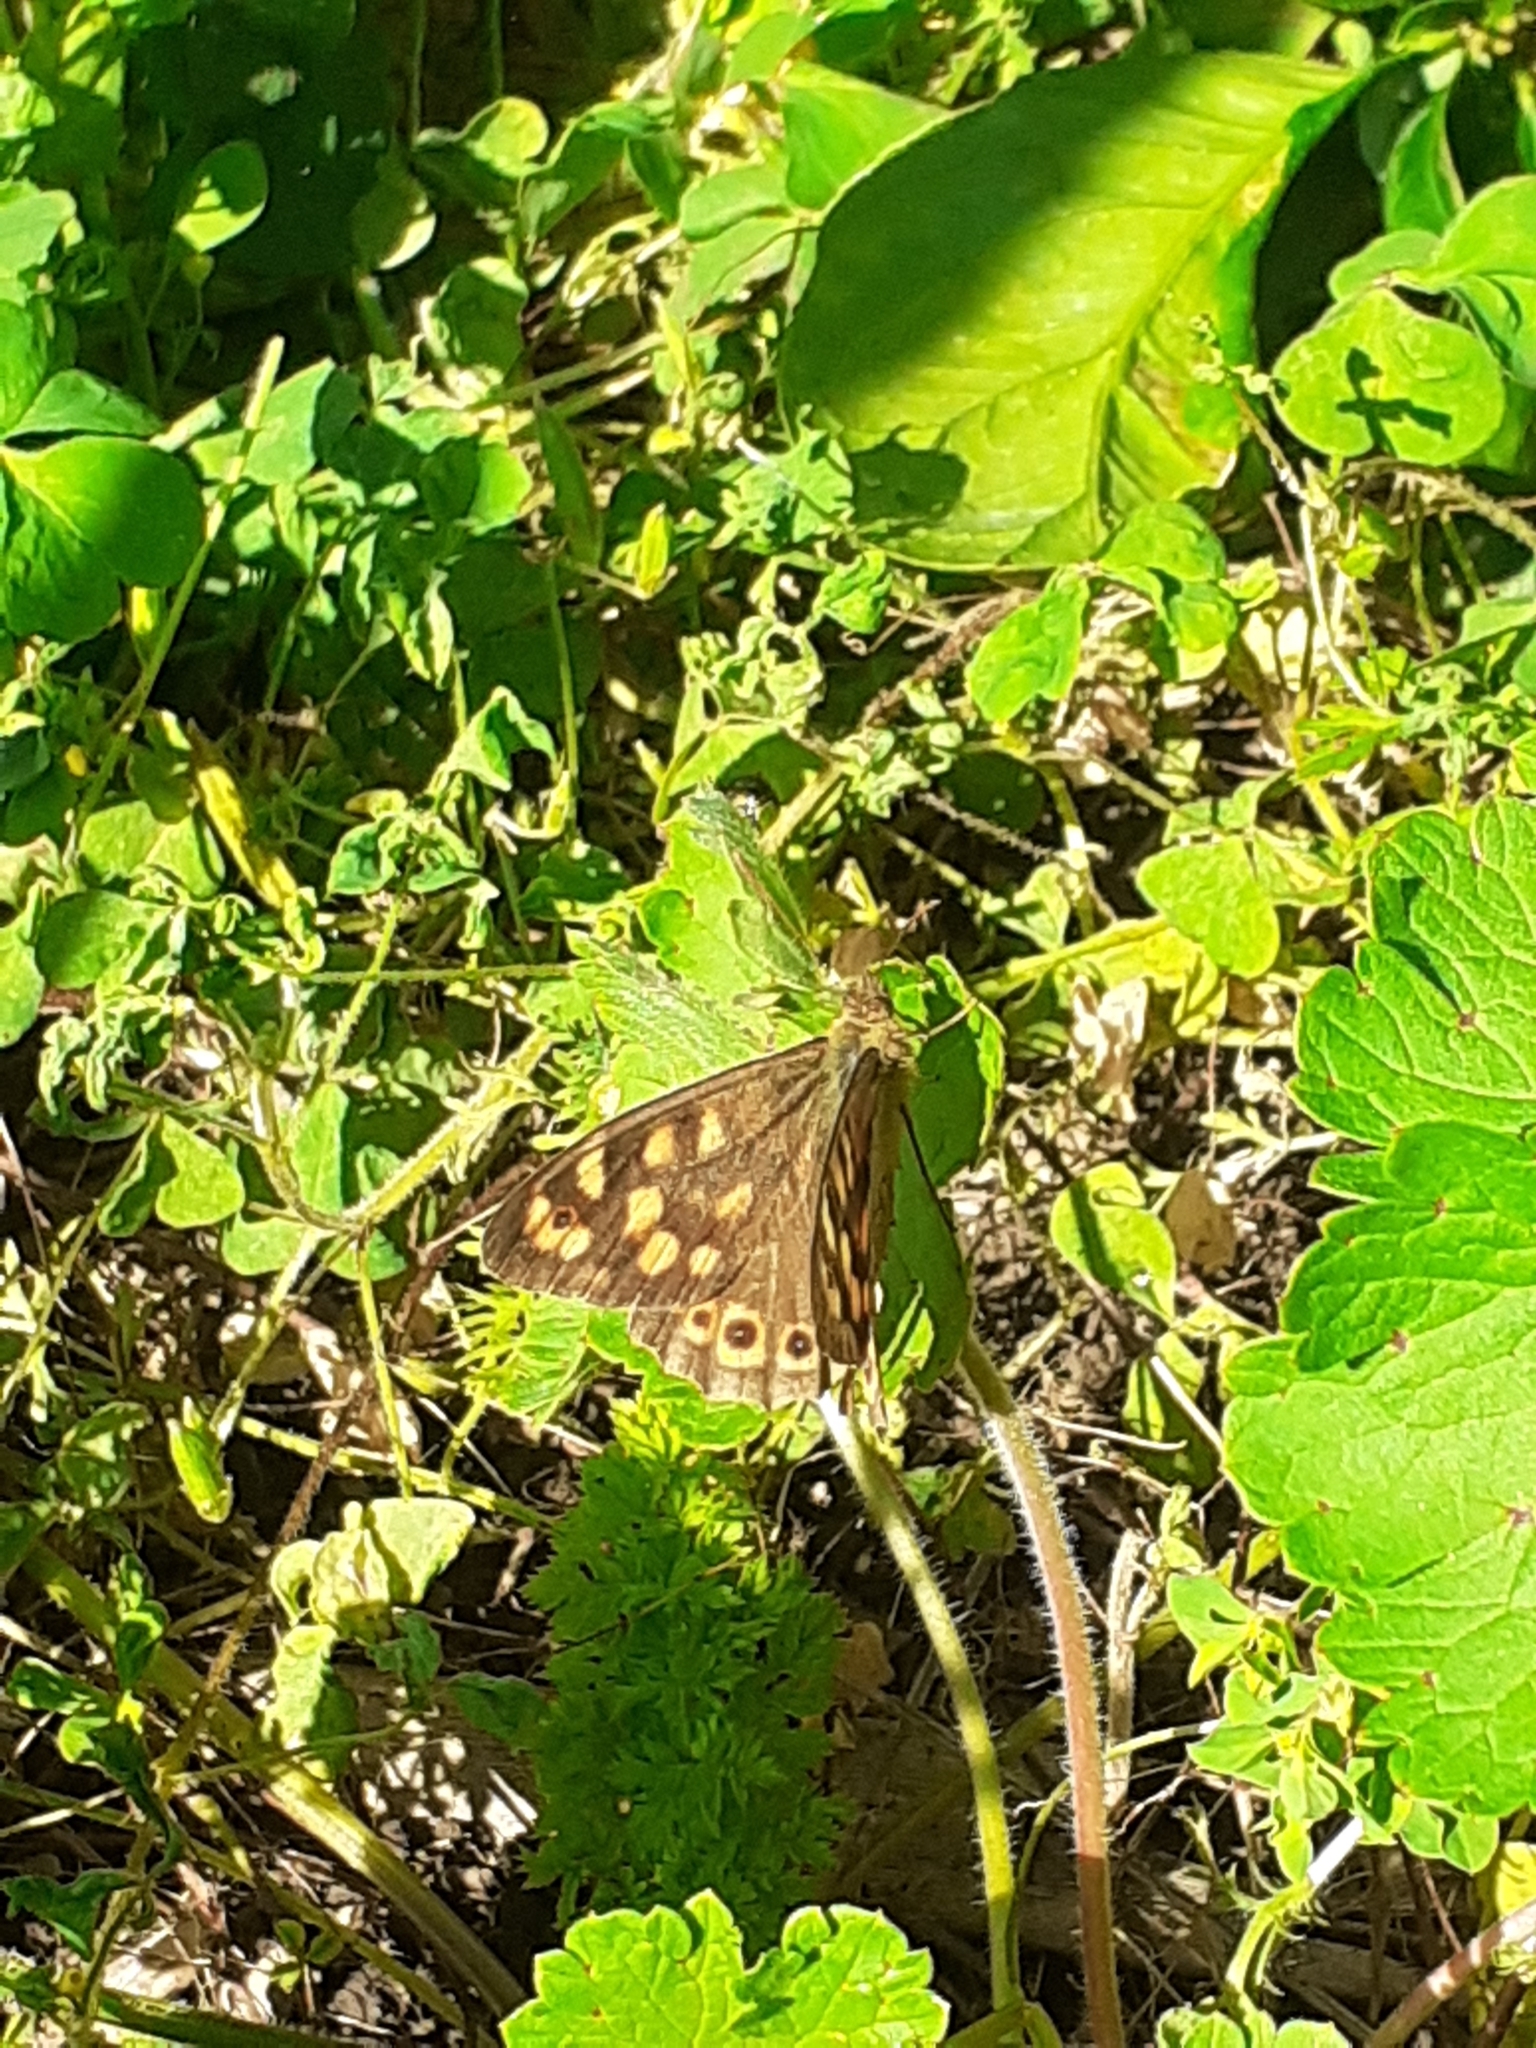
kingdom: Animalia
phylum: Arthropoda
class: Insecta
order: Lepidoptera
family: Nymphalidae
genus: Pararge
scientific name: Pararge aegeria
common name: Speckled wood
